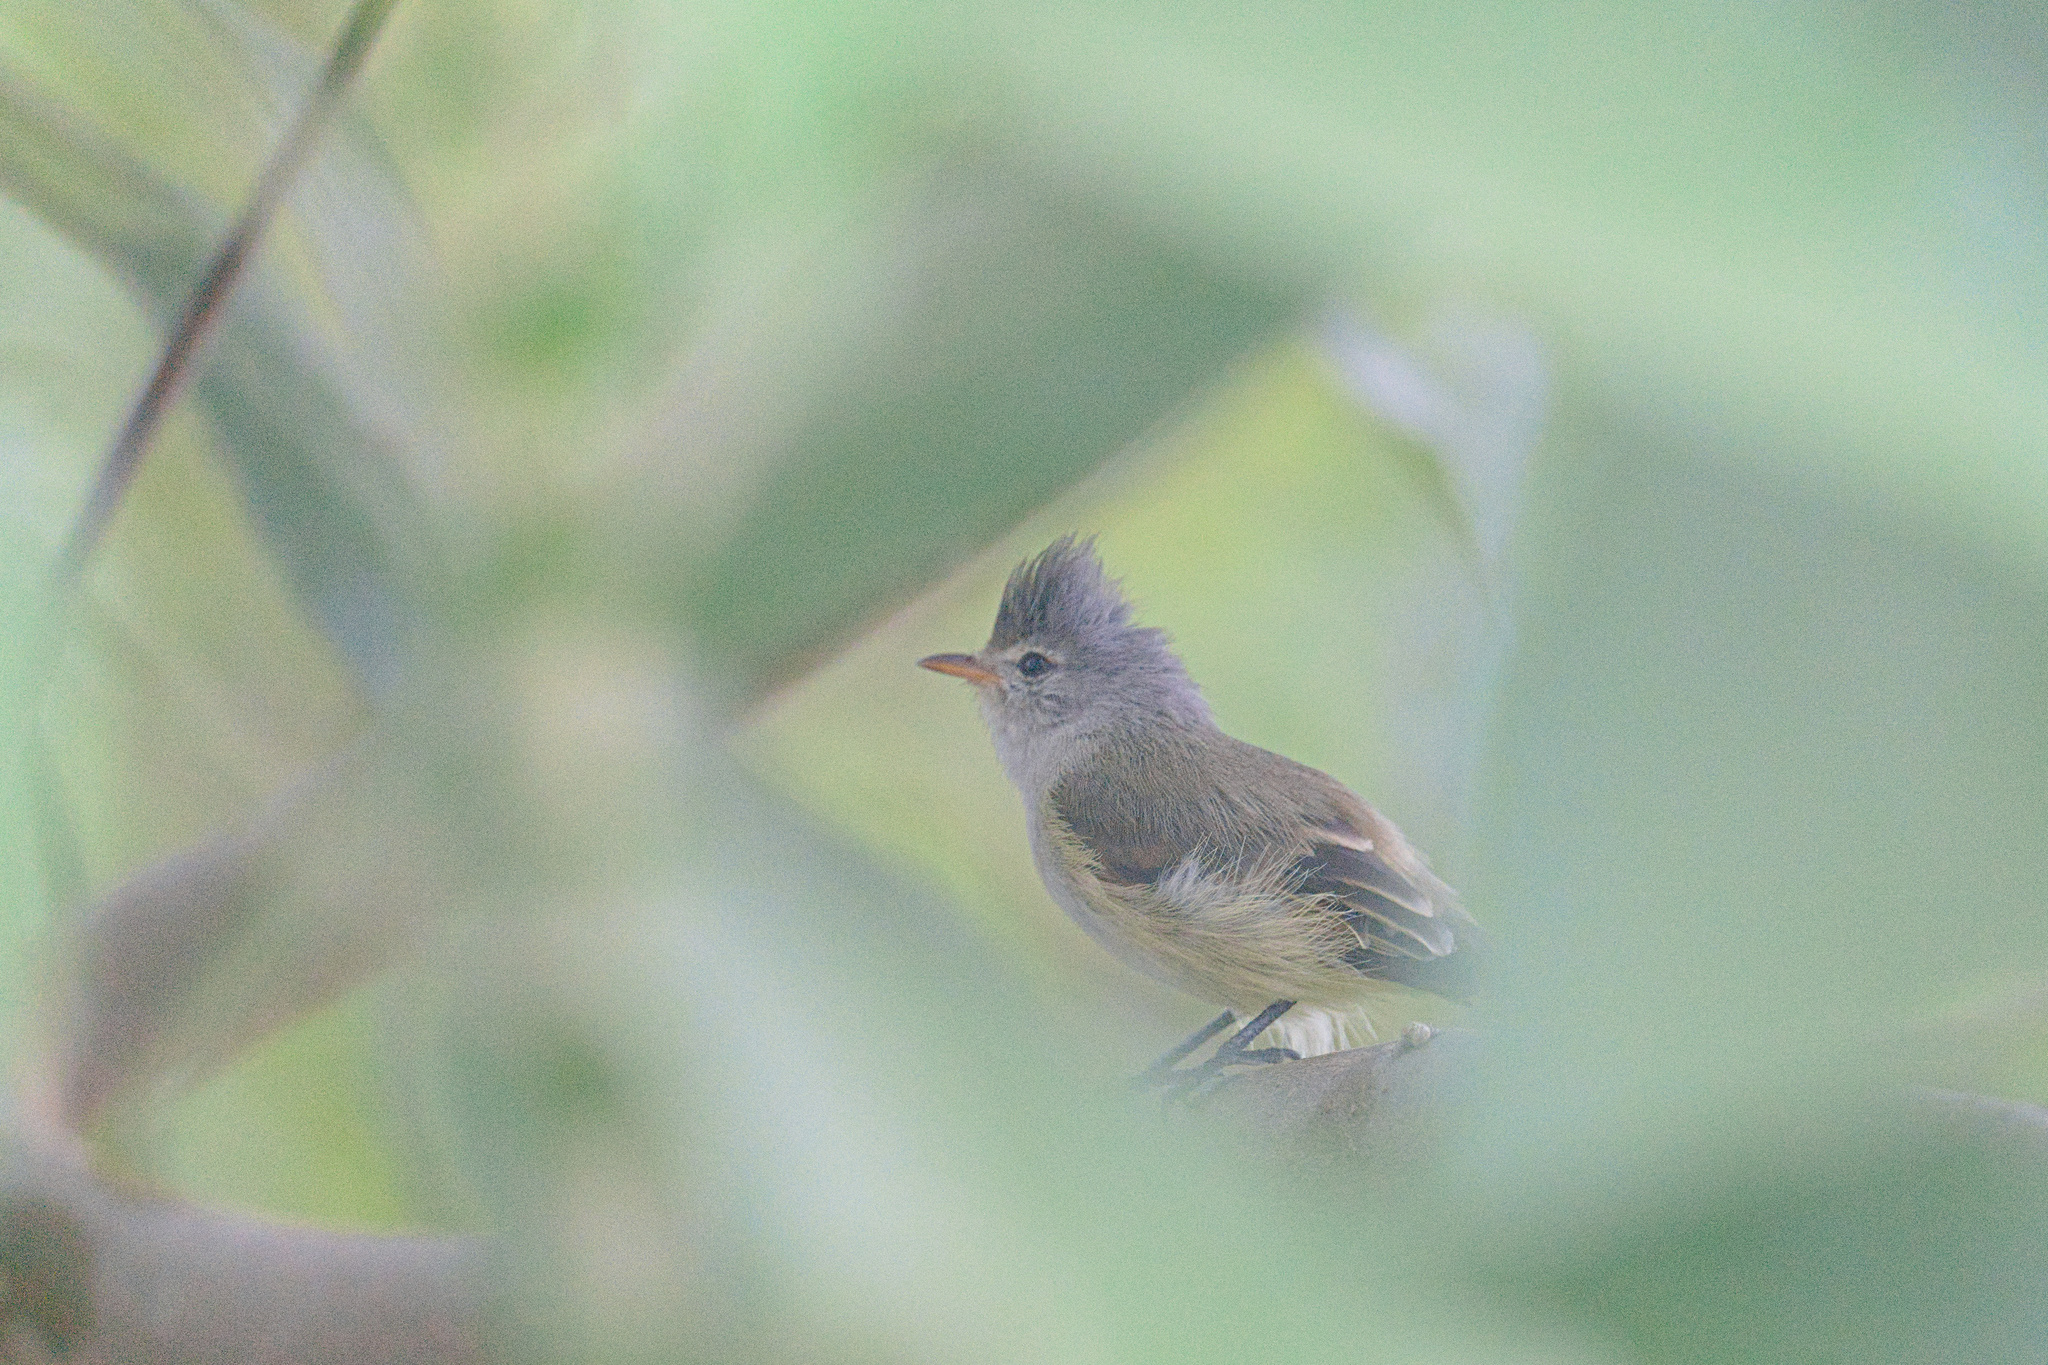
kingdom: Animalia
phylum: Chordata
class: Aves
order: Passeriformes
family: Tyrannidae
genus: Camptostoma
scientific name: Camptostoma obsoletum
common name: Southern beardless-tyrannulet
